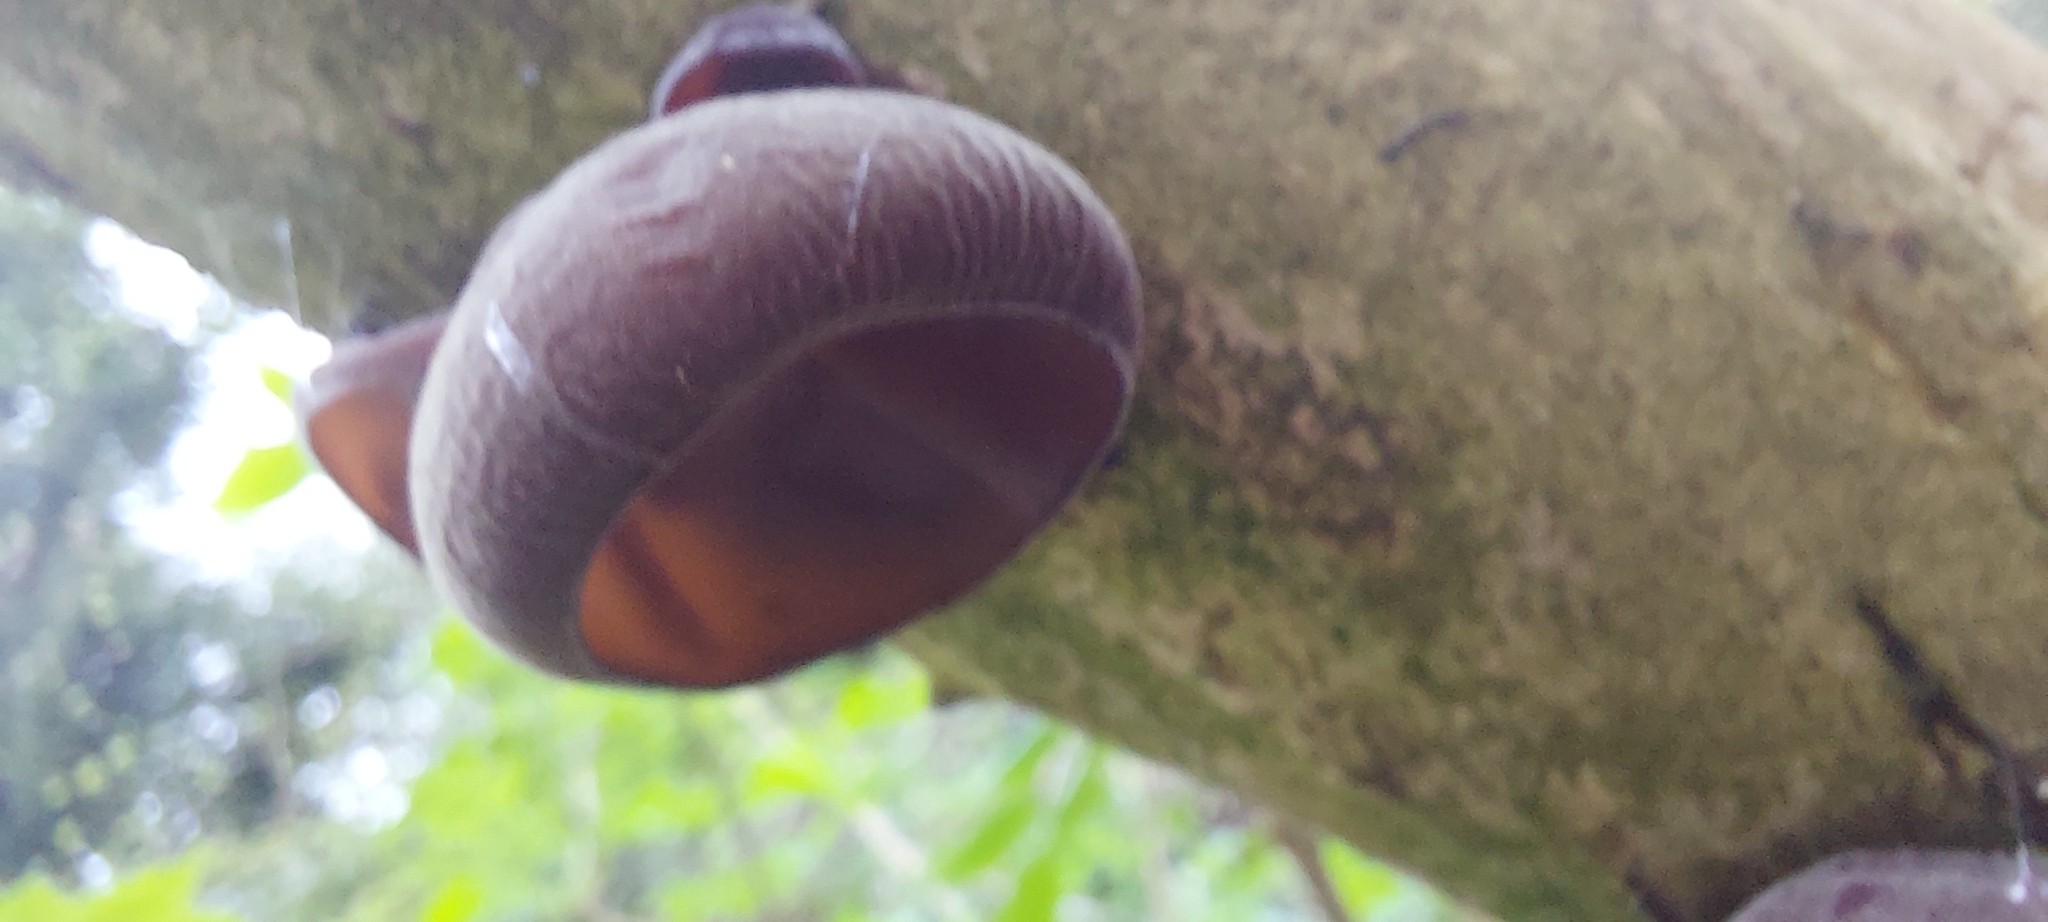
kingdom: Fungi
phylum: Basidiomycota
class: Agaricomycetes
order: Auriculariales
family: Auriculariaceae
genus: Auricularia
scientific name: Auricularia auricula-judae
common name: Jelly ear
